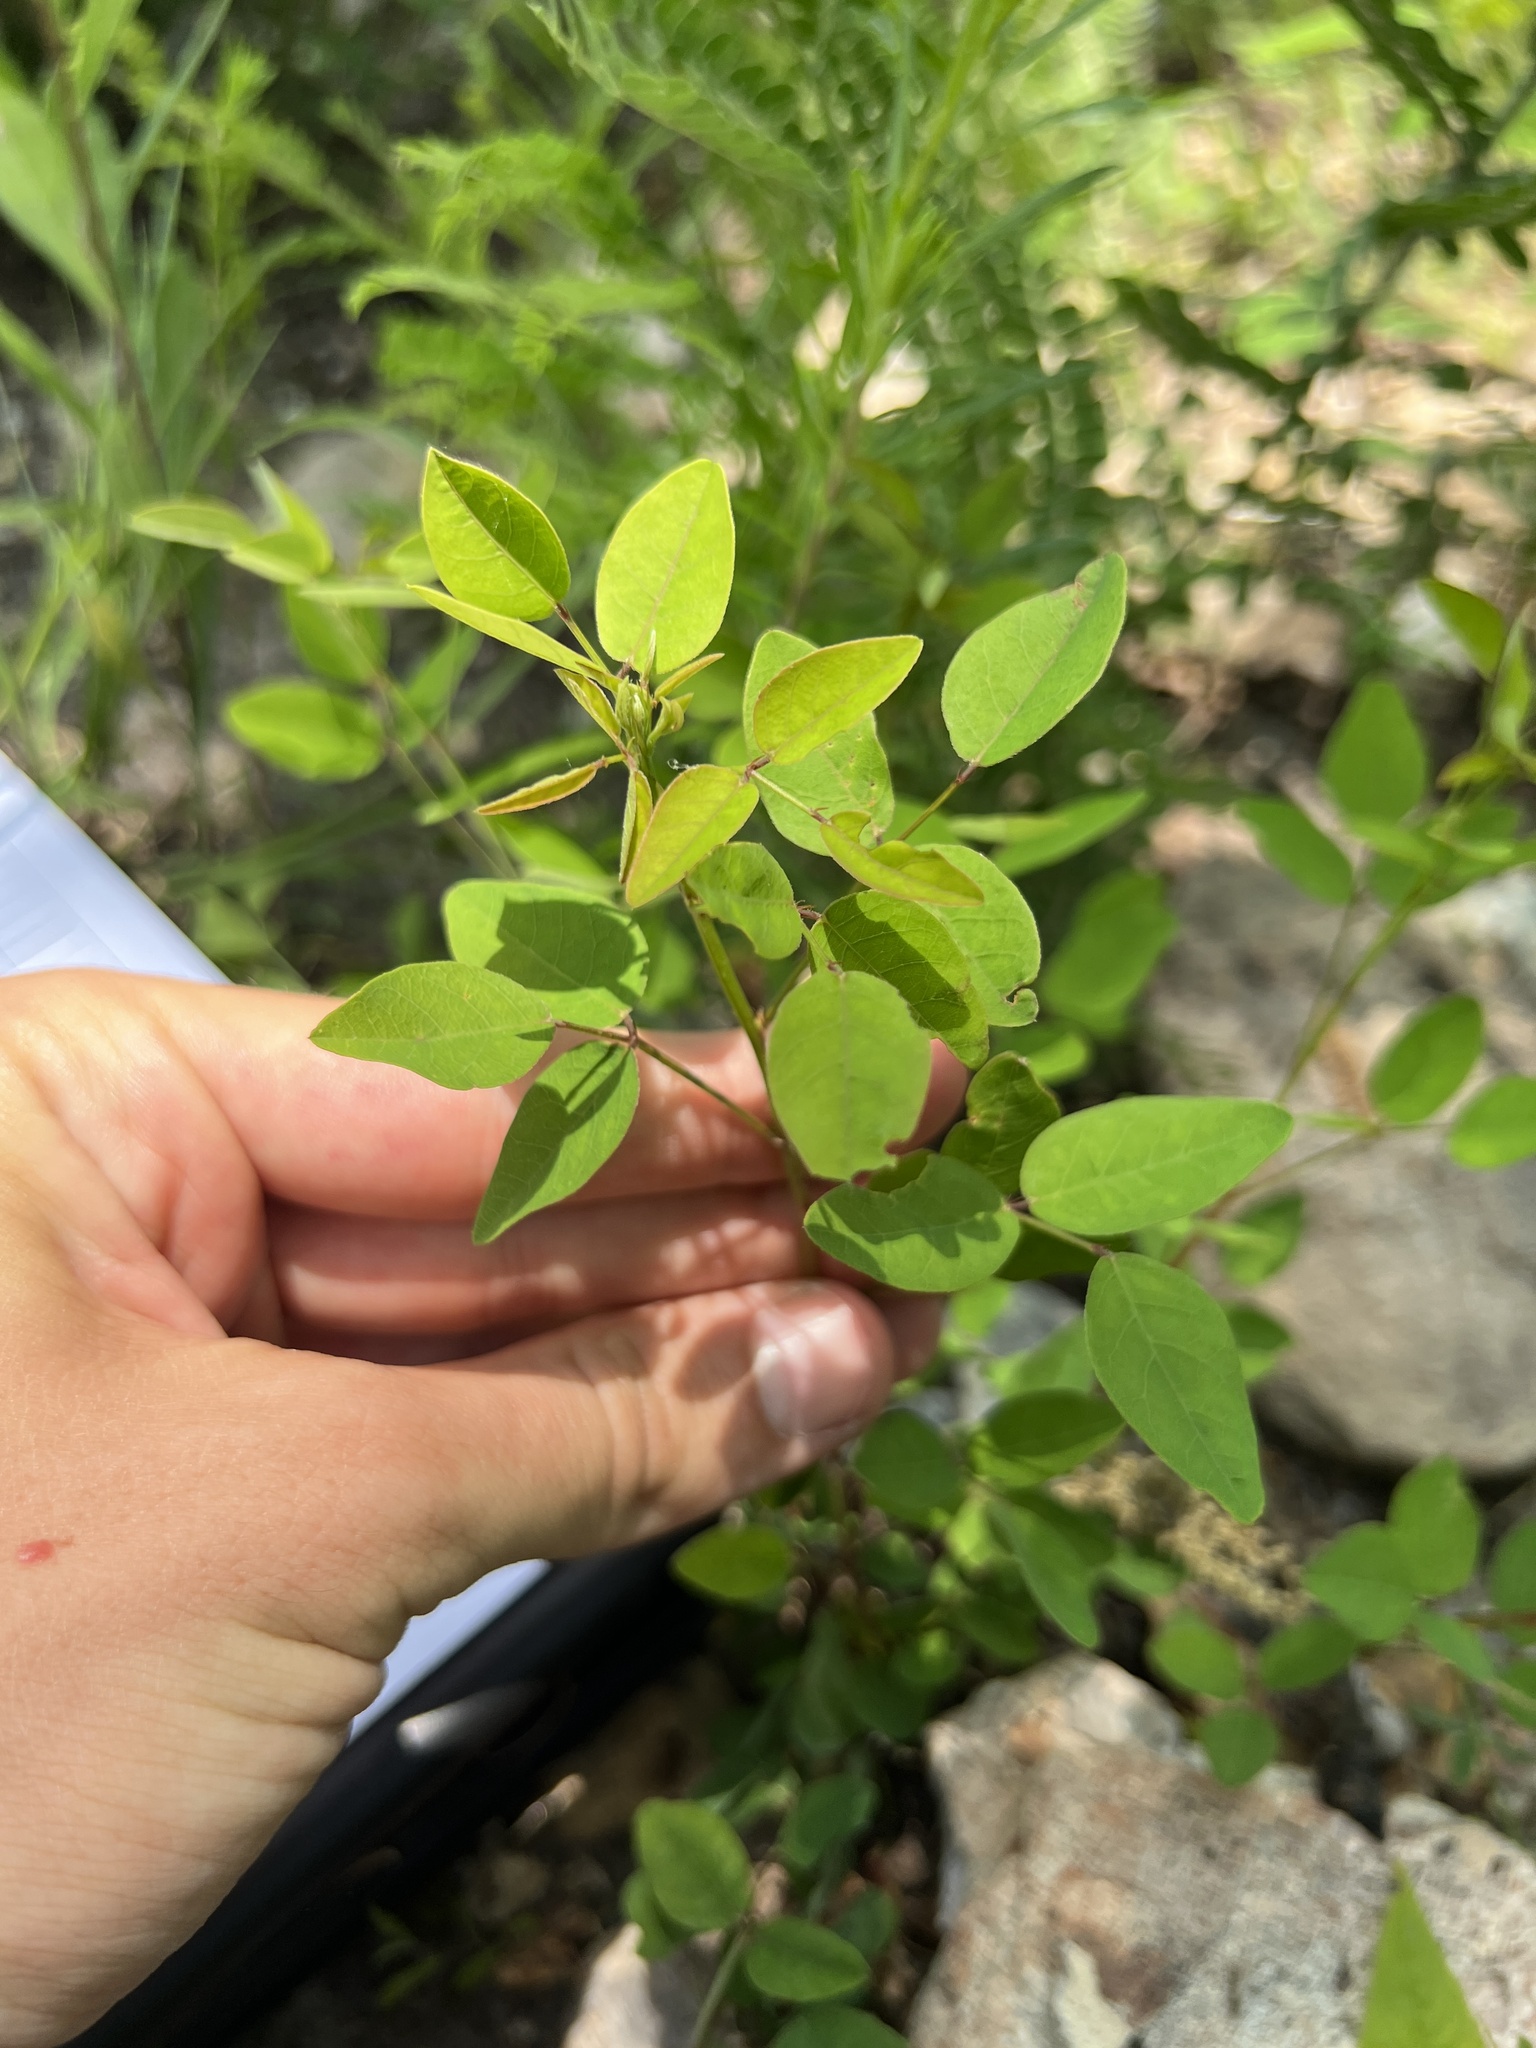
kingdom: Plantae
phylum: Tracheophyta
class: Magnoliopsida
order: Fabales
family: Fabaceae
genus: Desmodium
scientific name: Desmodium marilandicum
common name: Maryland tick-trefoil
